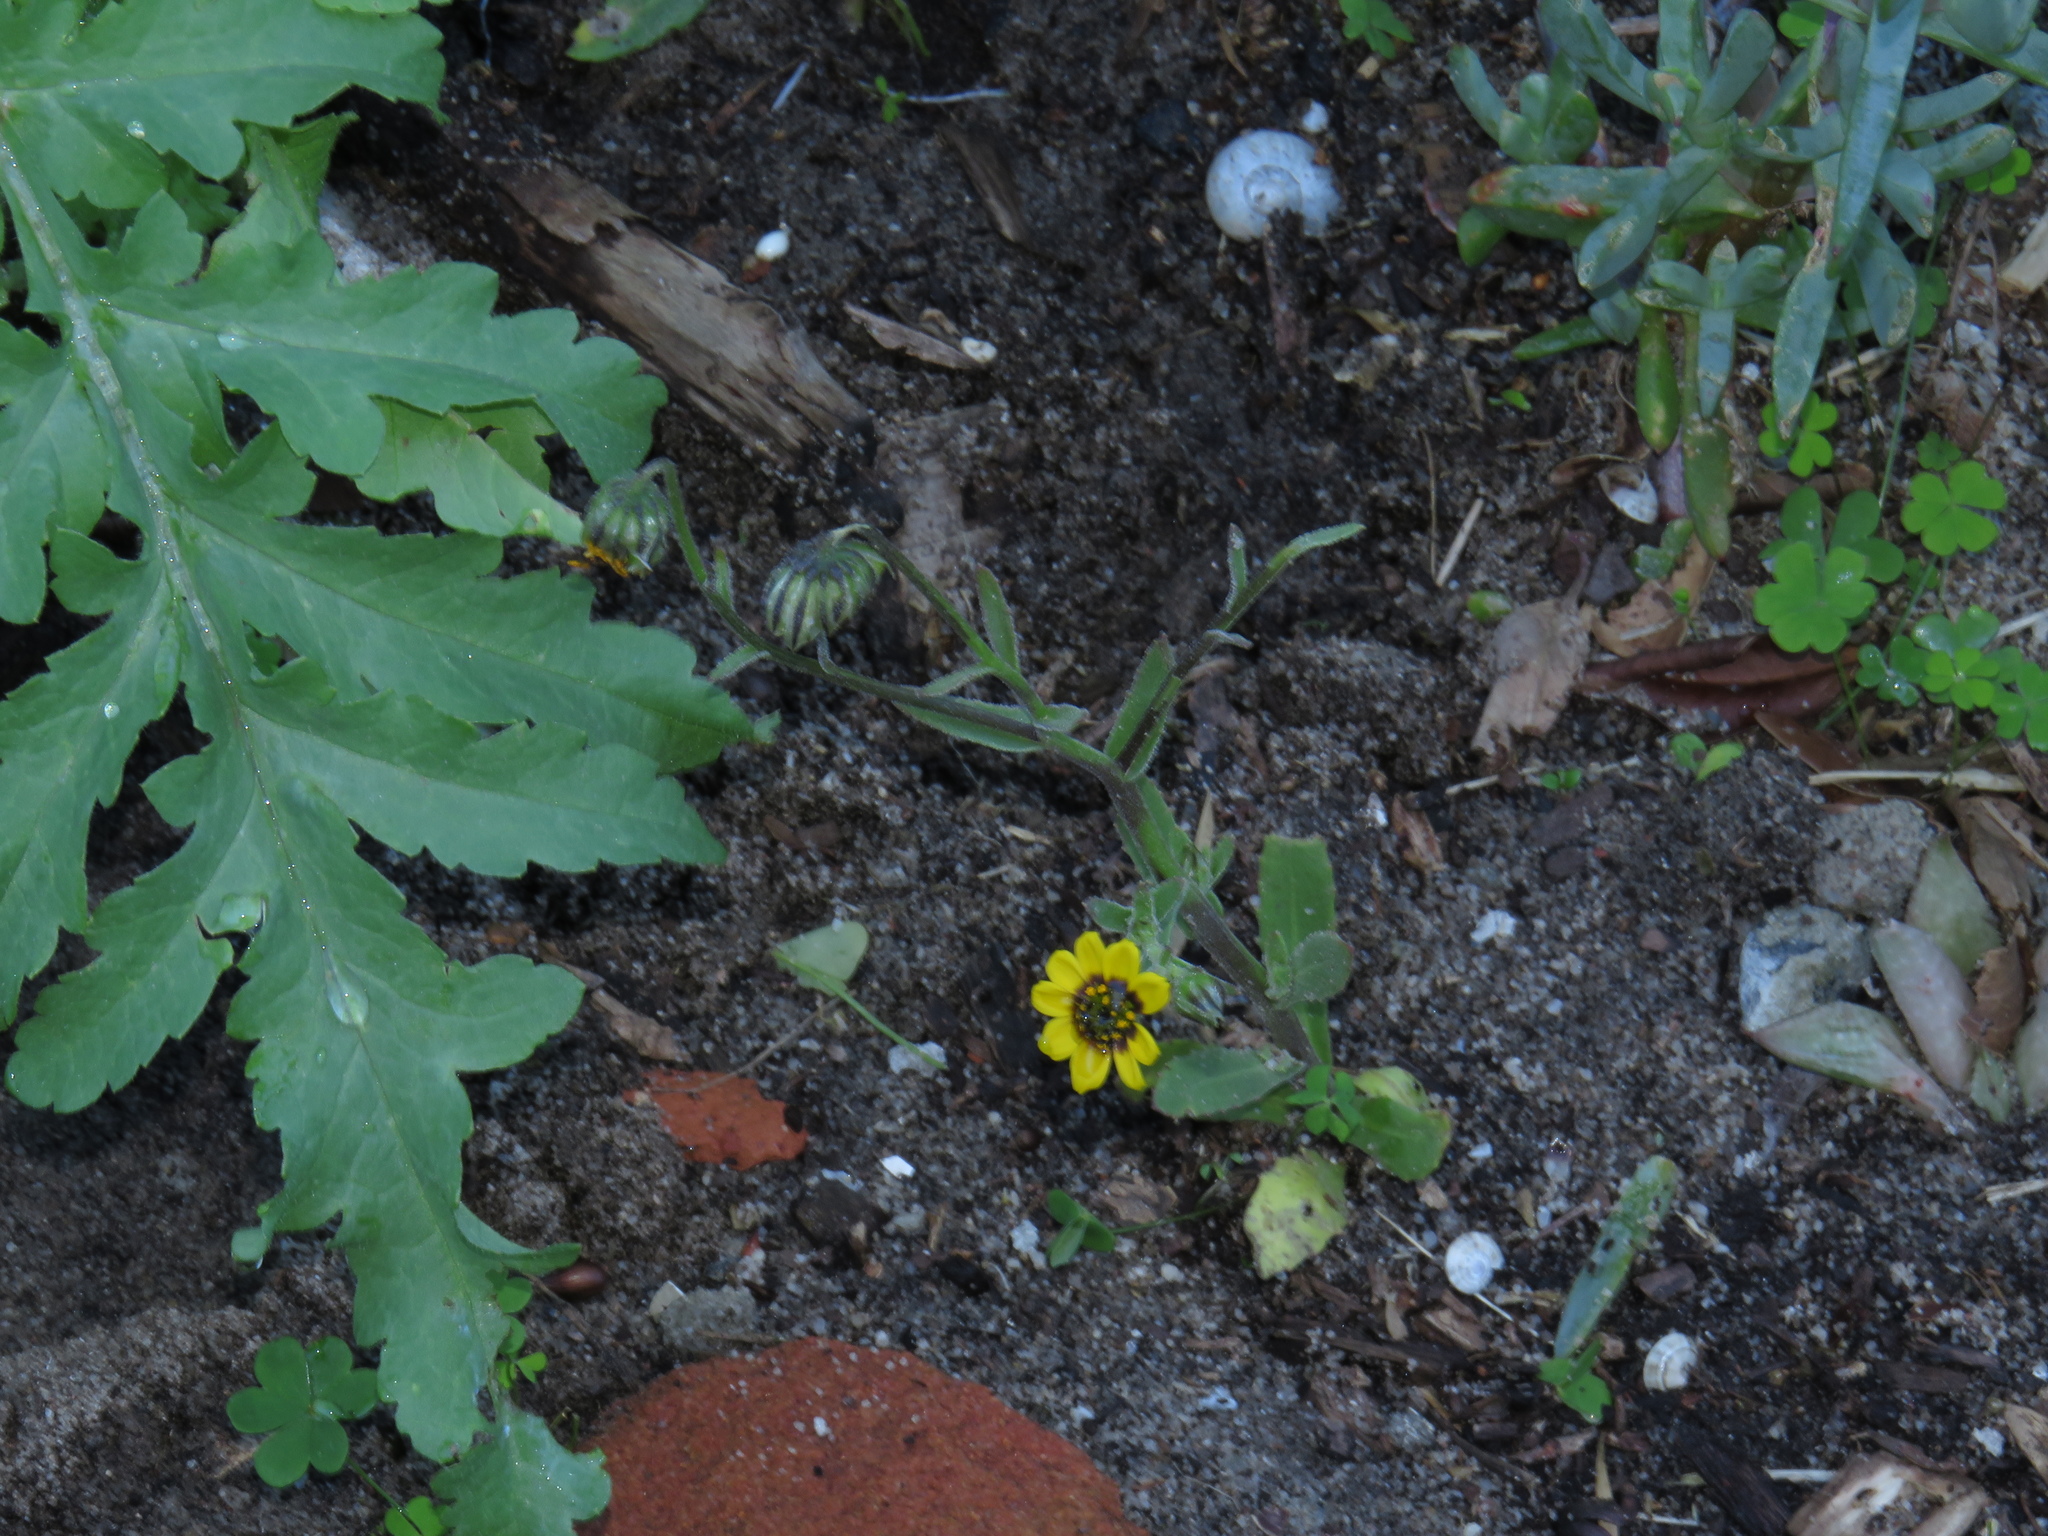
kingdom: Plantae
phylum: Tracheophyta
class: Magnoliopsida
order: Asterales
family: Asteraceae
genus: Osteospermum
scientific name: Osteospermum monstrosum
